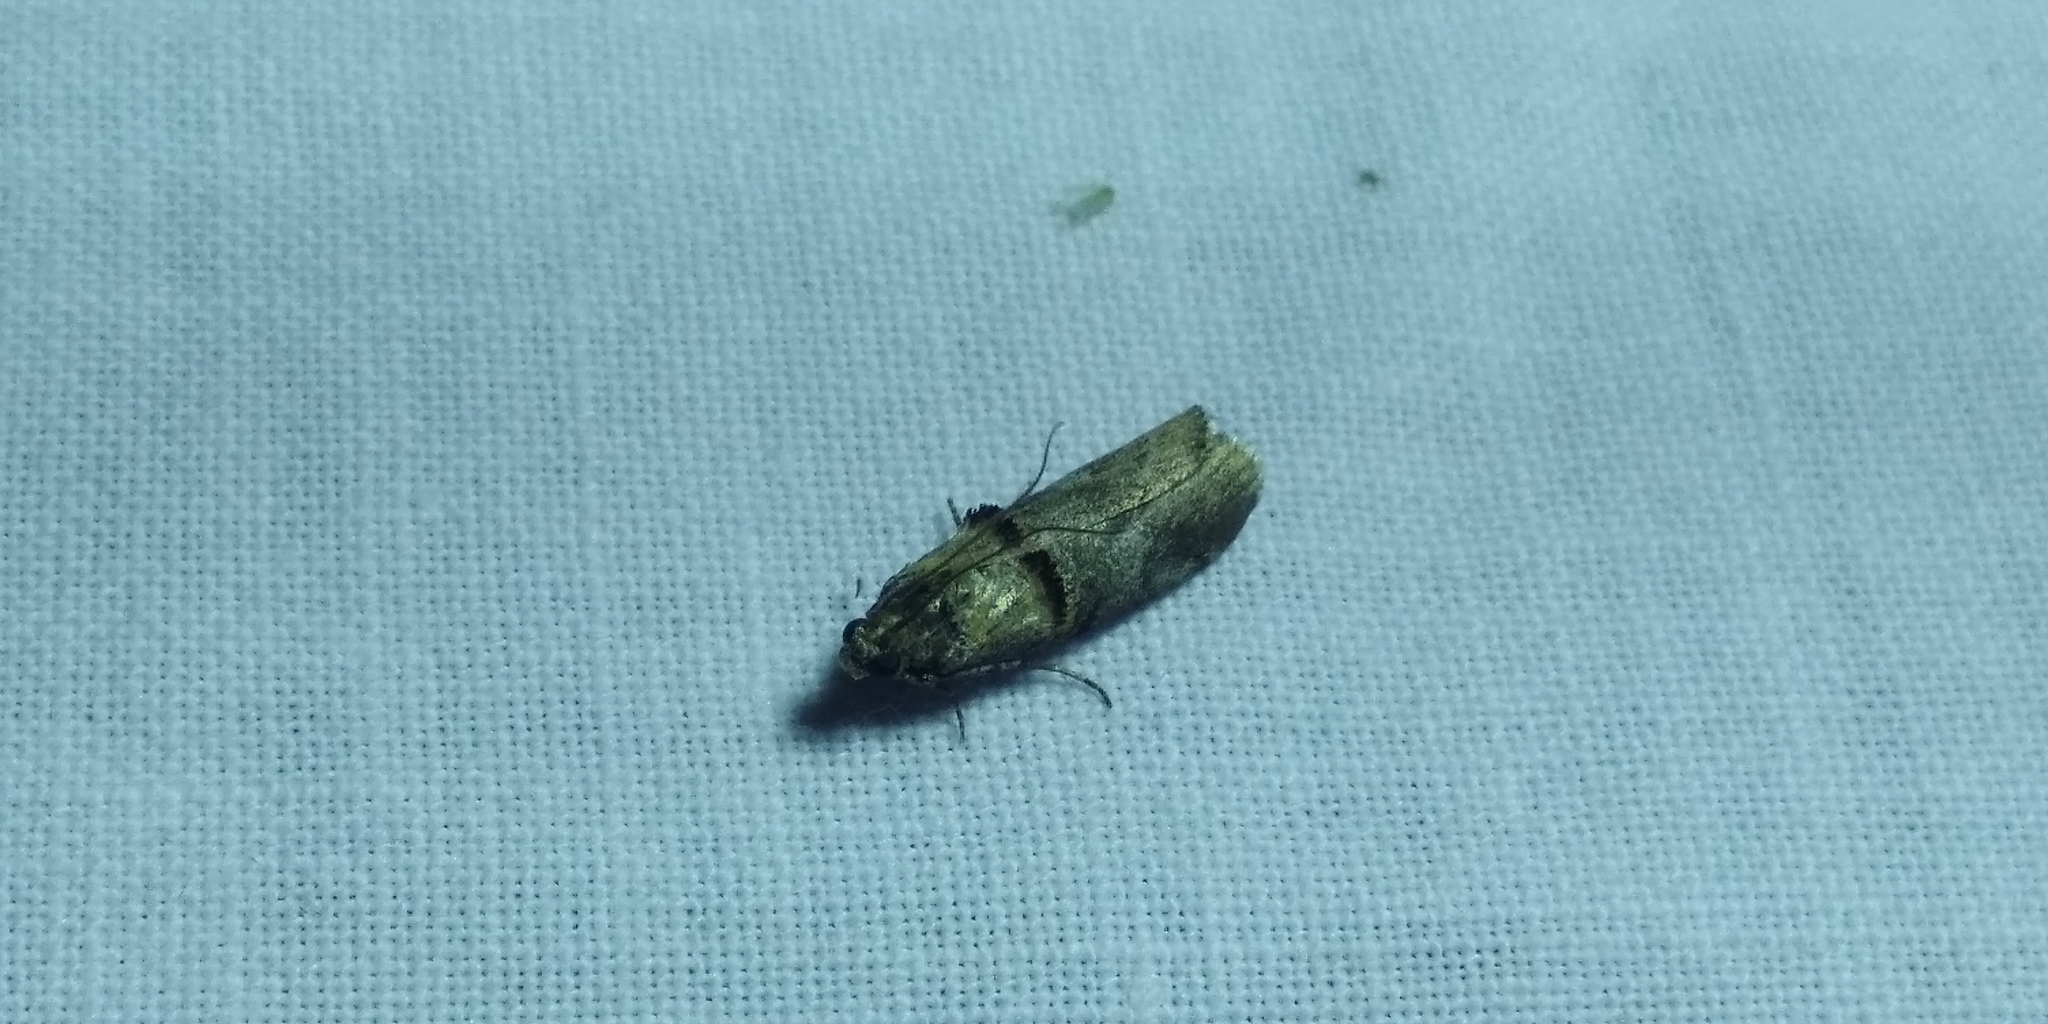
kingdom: Animalia
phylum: Arthropoda
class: Insecta
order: Lepidoptera
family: Pyralidae
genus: Trachonitis
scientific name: Trachonitis cristella
